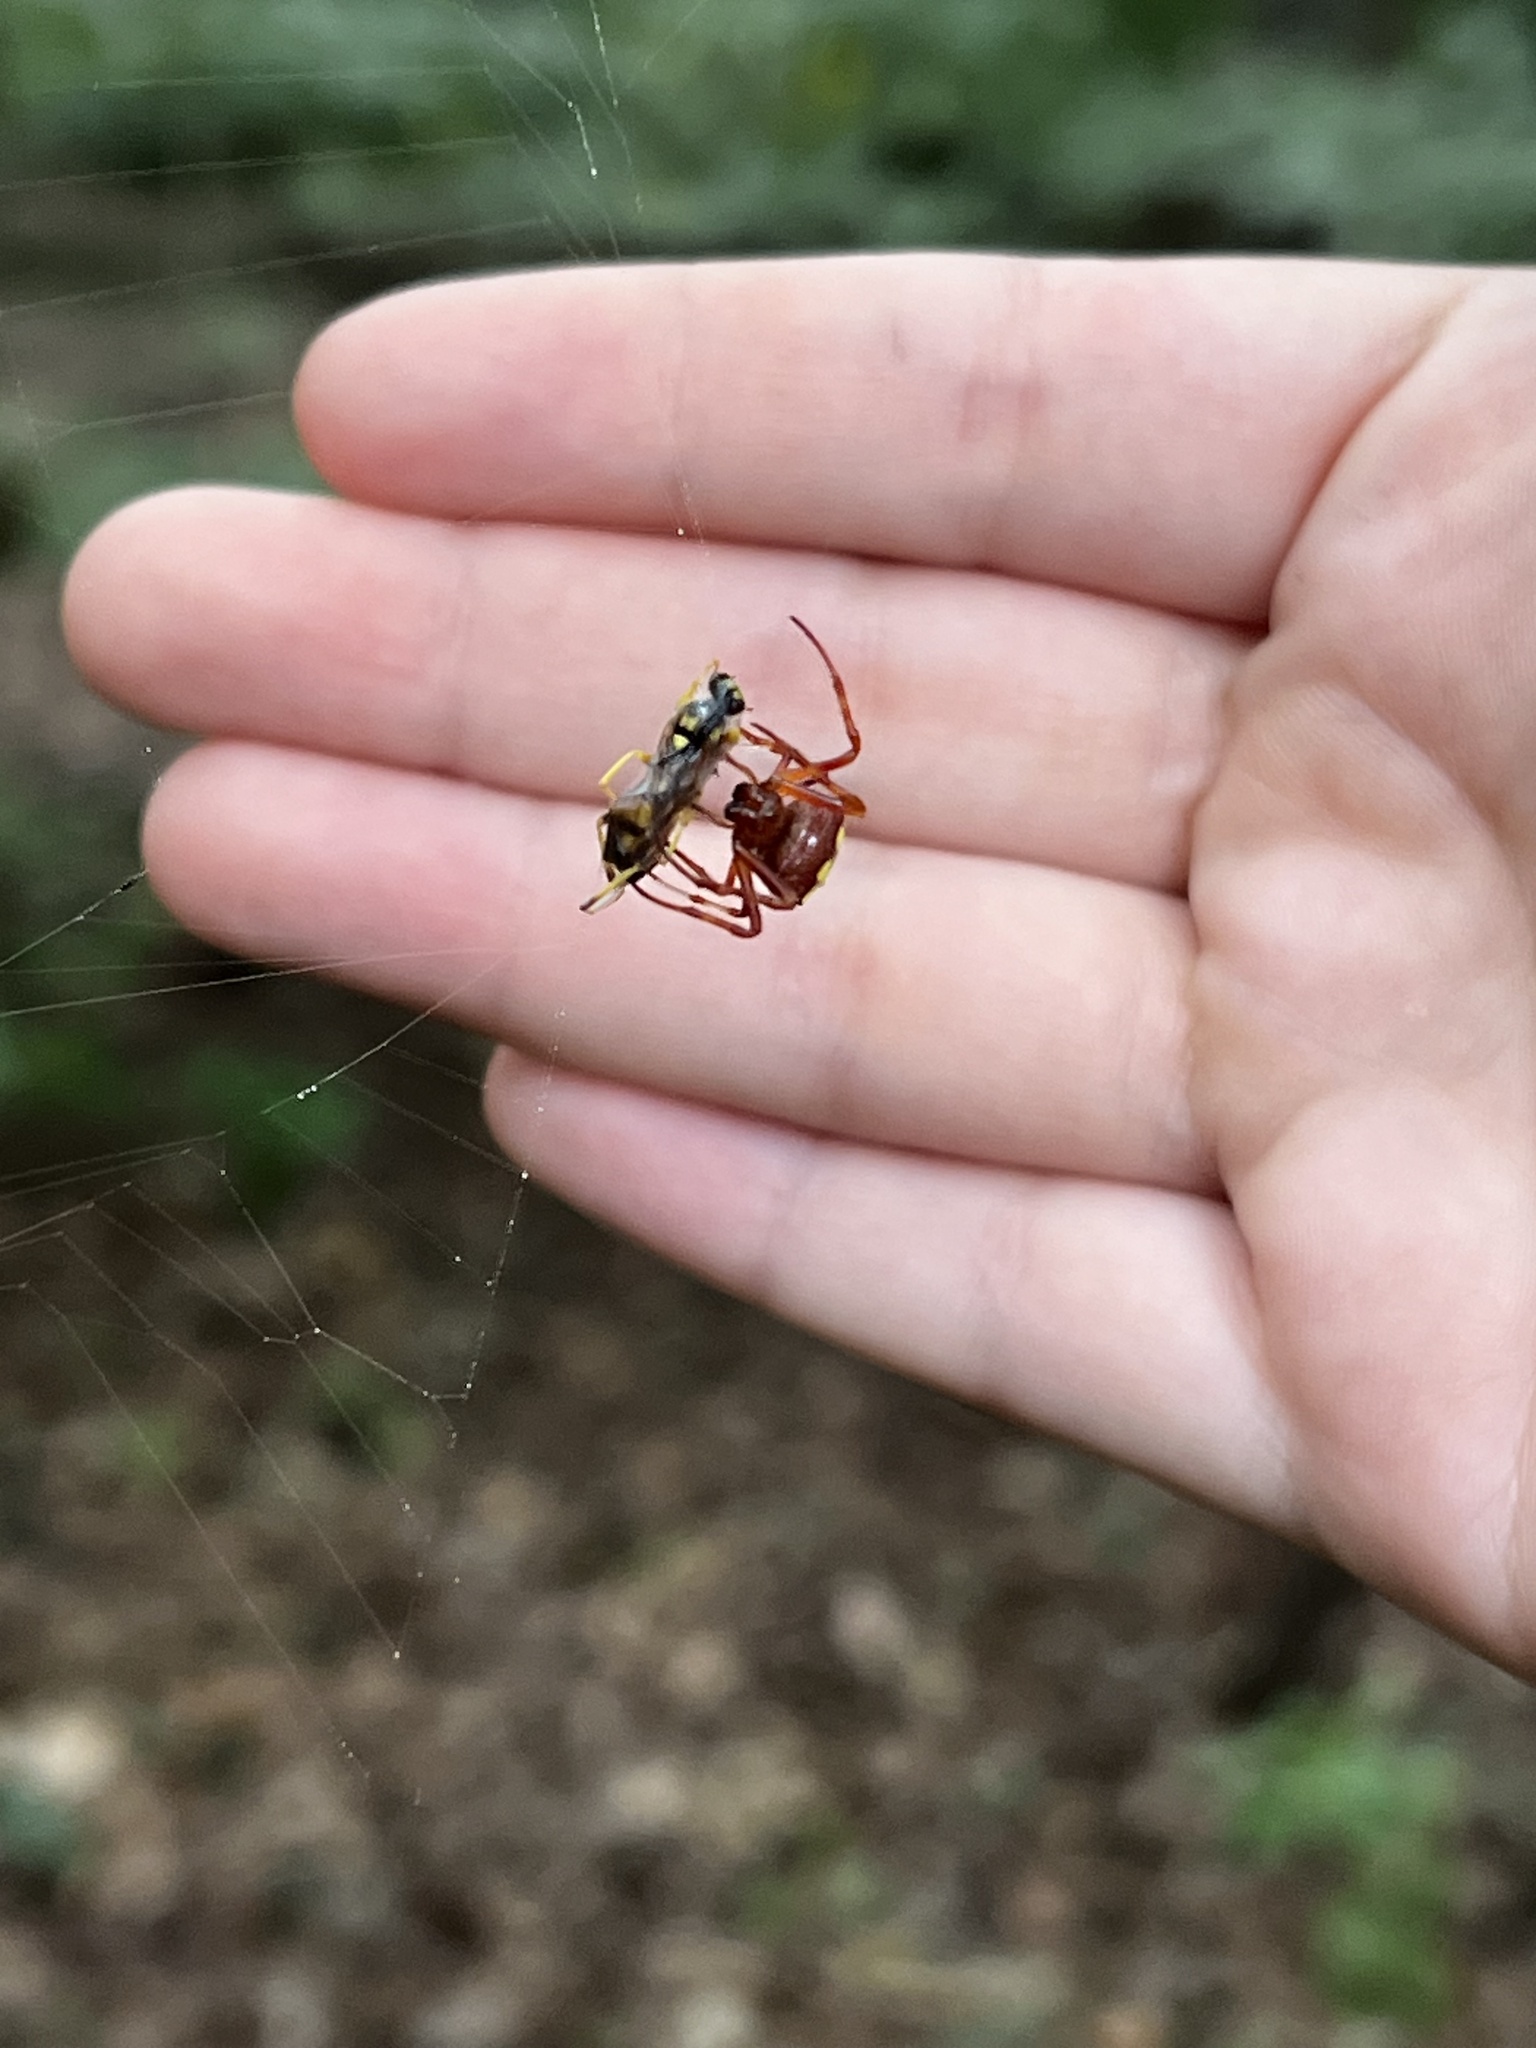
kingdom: Animalia
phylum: Arthropoda
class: Arachnida
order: Araneae
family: Araneidae
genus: Verrucosa
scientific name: Verrucosa arenata
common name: Orb weavers
